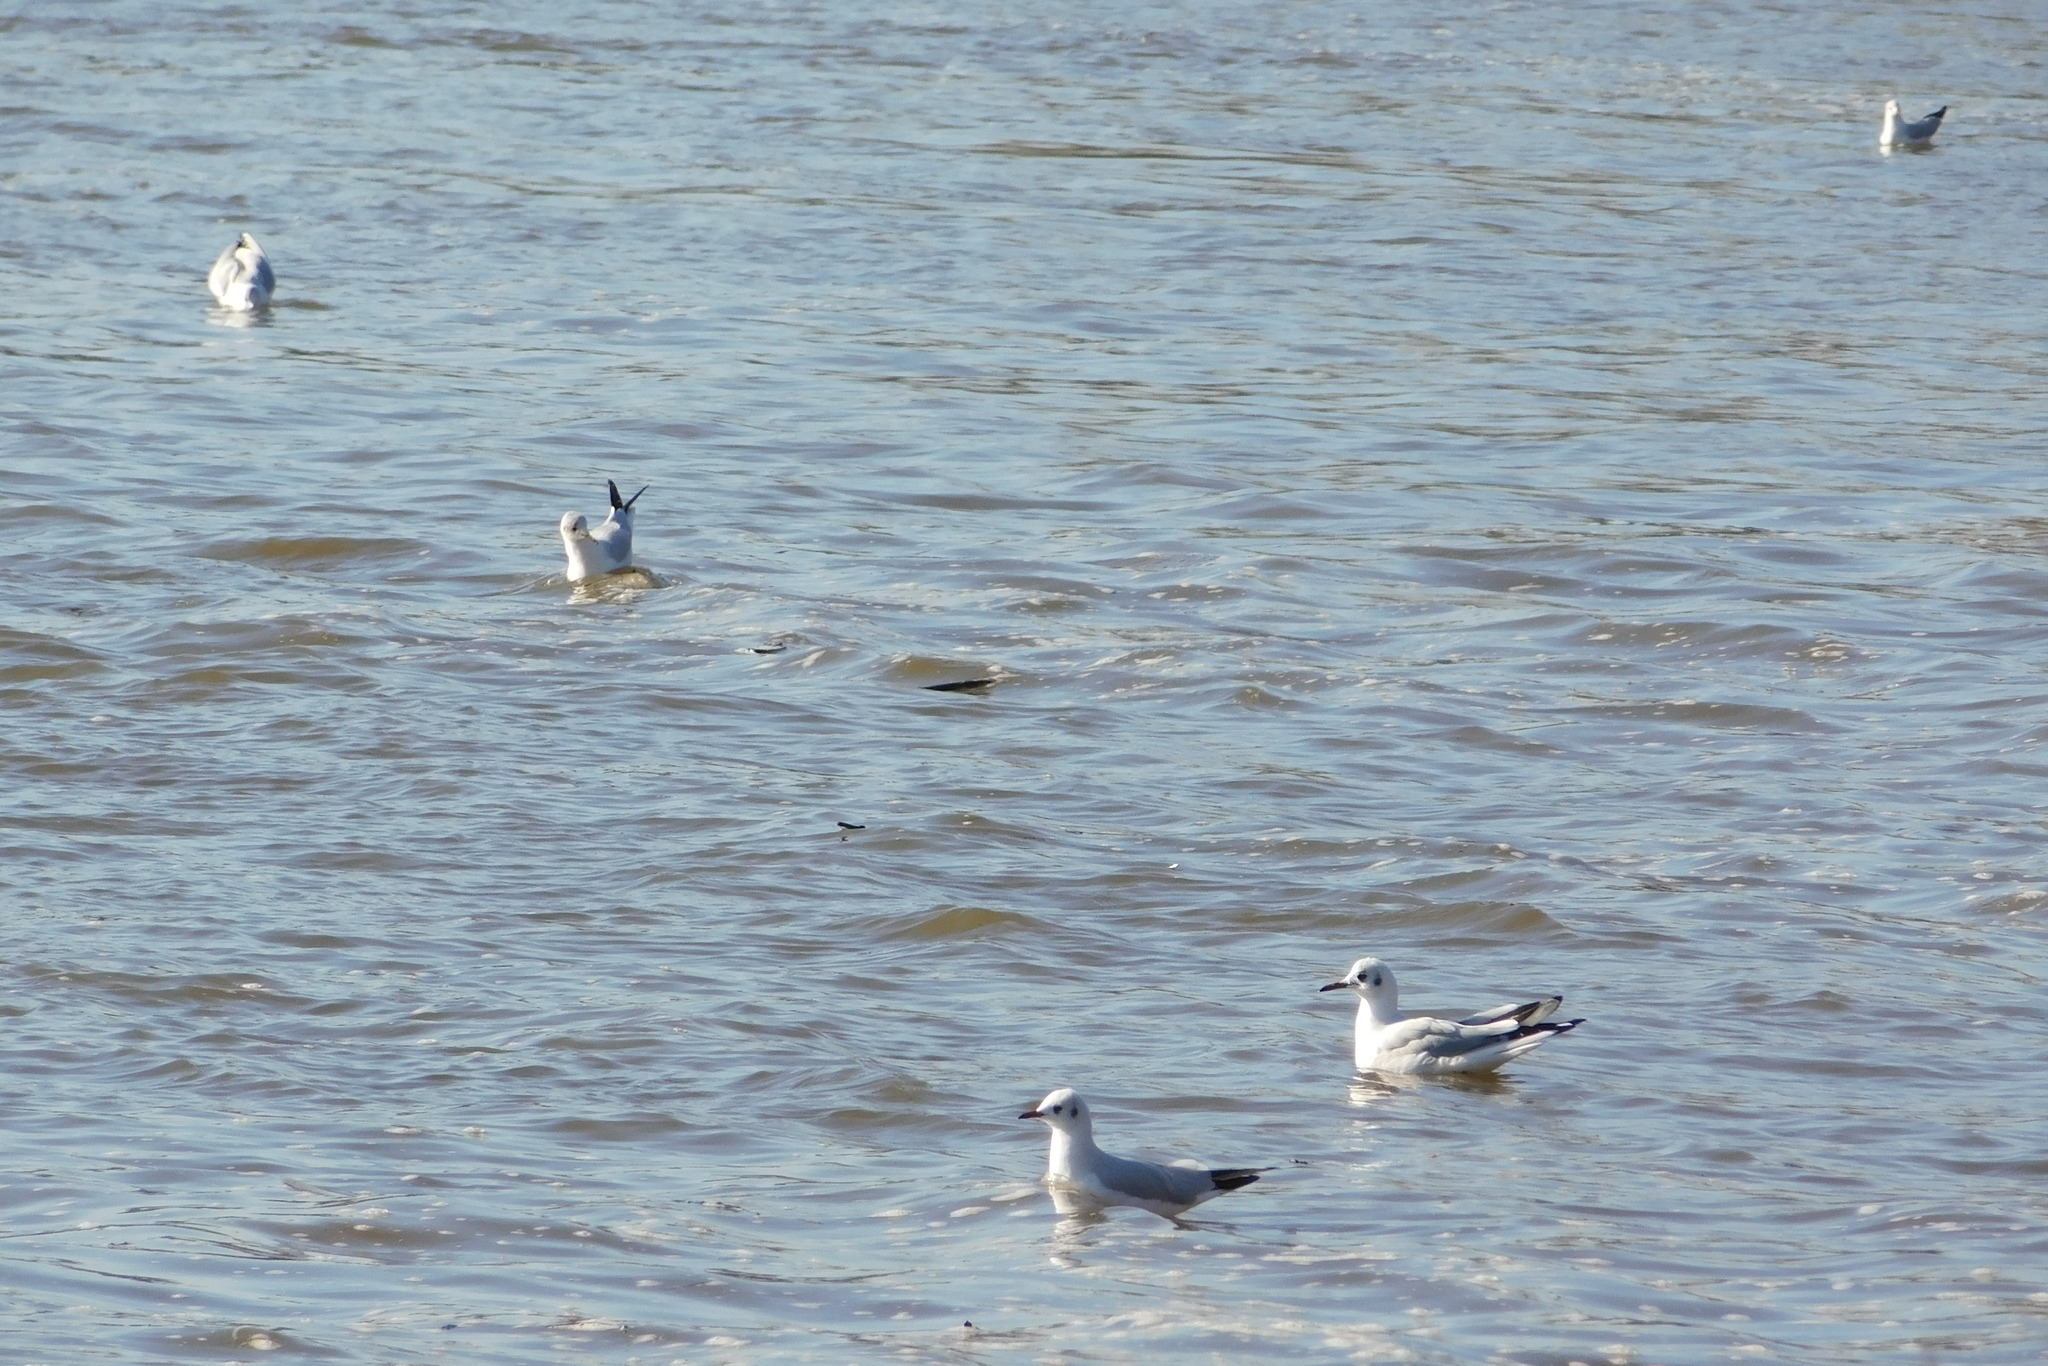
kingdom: Animalia
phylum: Chordata
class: Aves
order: Charadriiformes
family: Laridae
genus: Chroicocephalus
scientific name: Chroicocephalus ridibundus
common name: Black-headed gull
